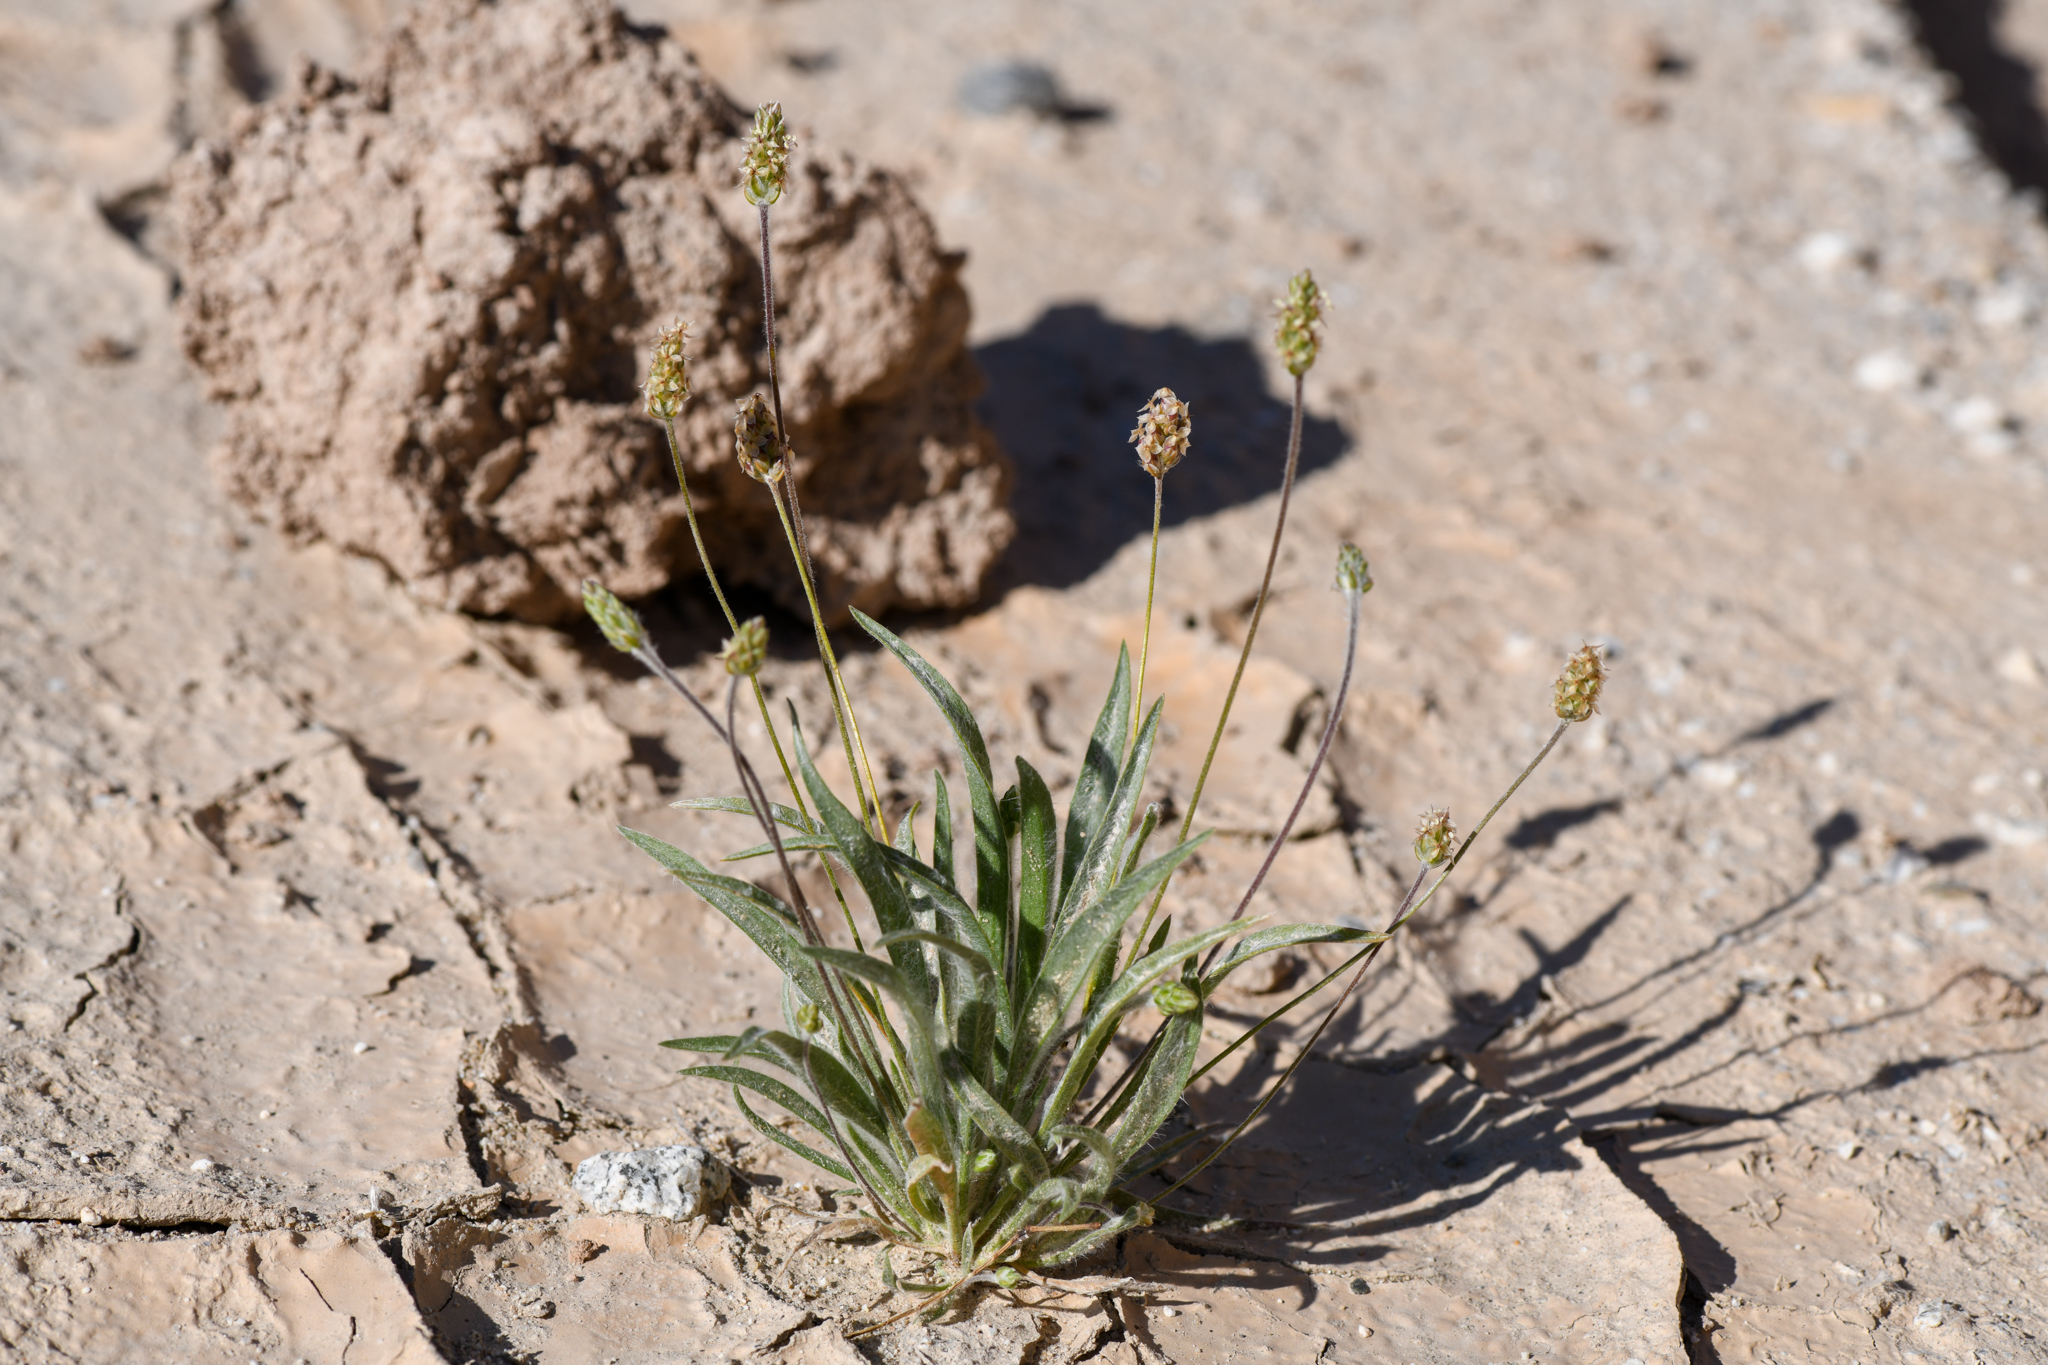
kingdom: Plantae
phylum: Tracheophyta
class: Magnoliopsida
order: Lamiales
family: Plantaginaceae
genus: Plantago
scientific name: Plantago ovata
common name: Blond plantain
